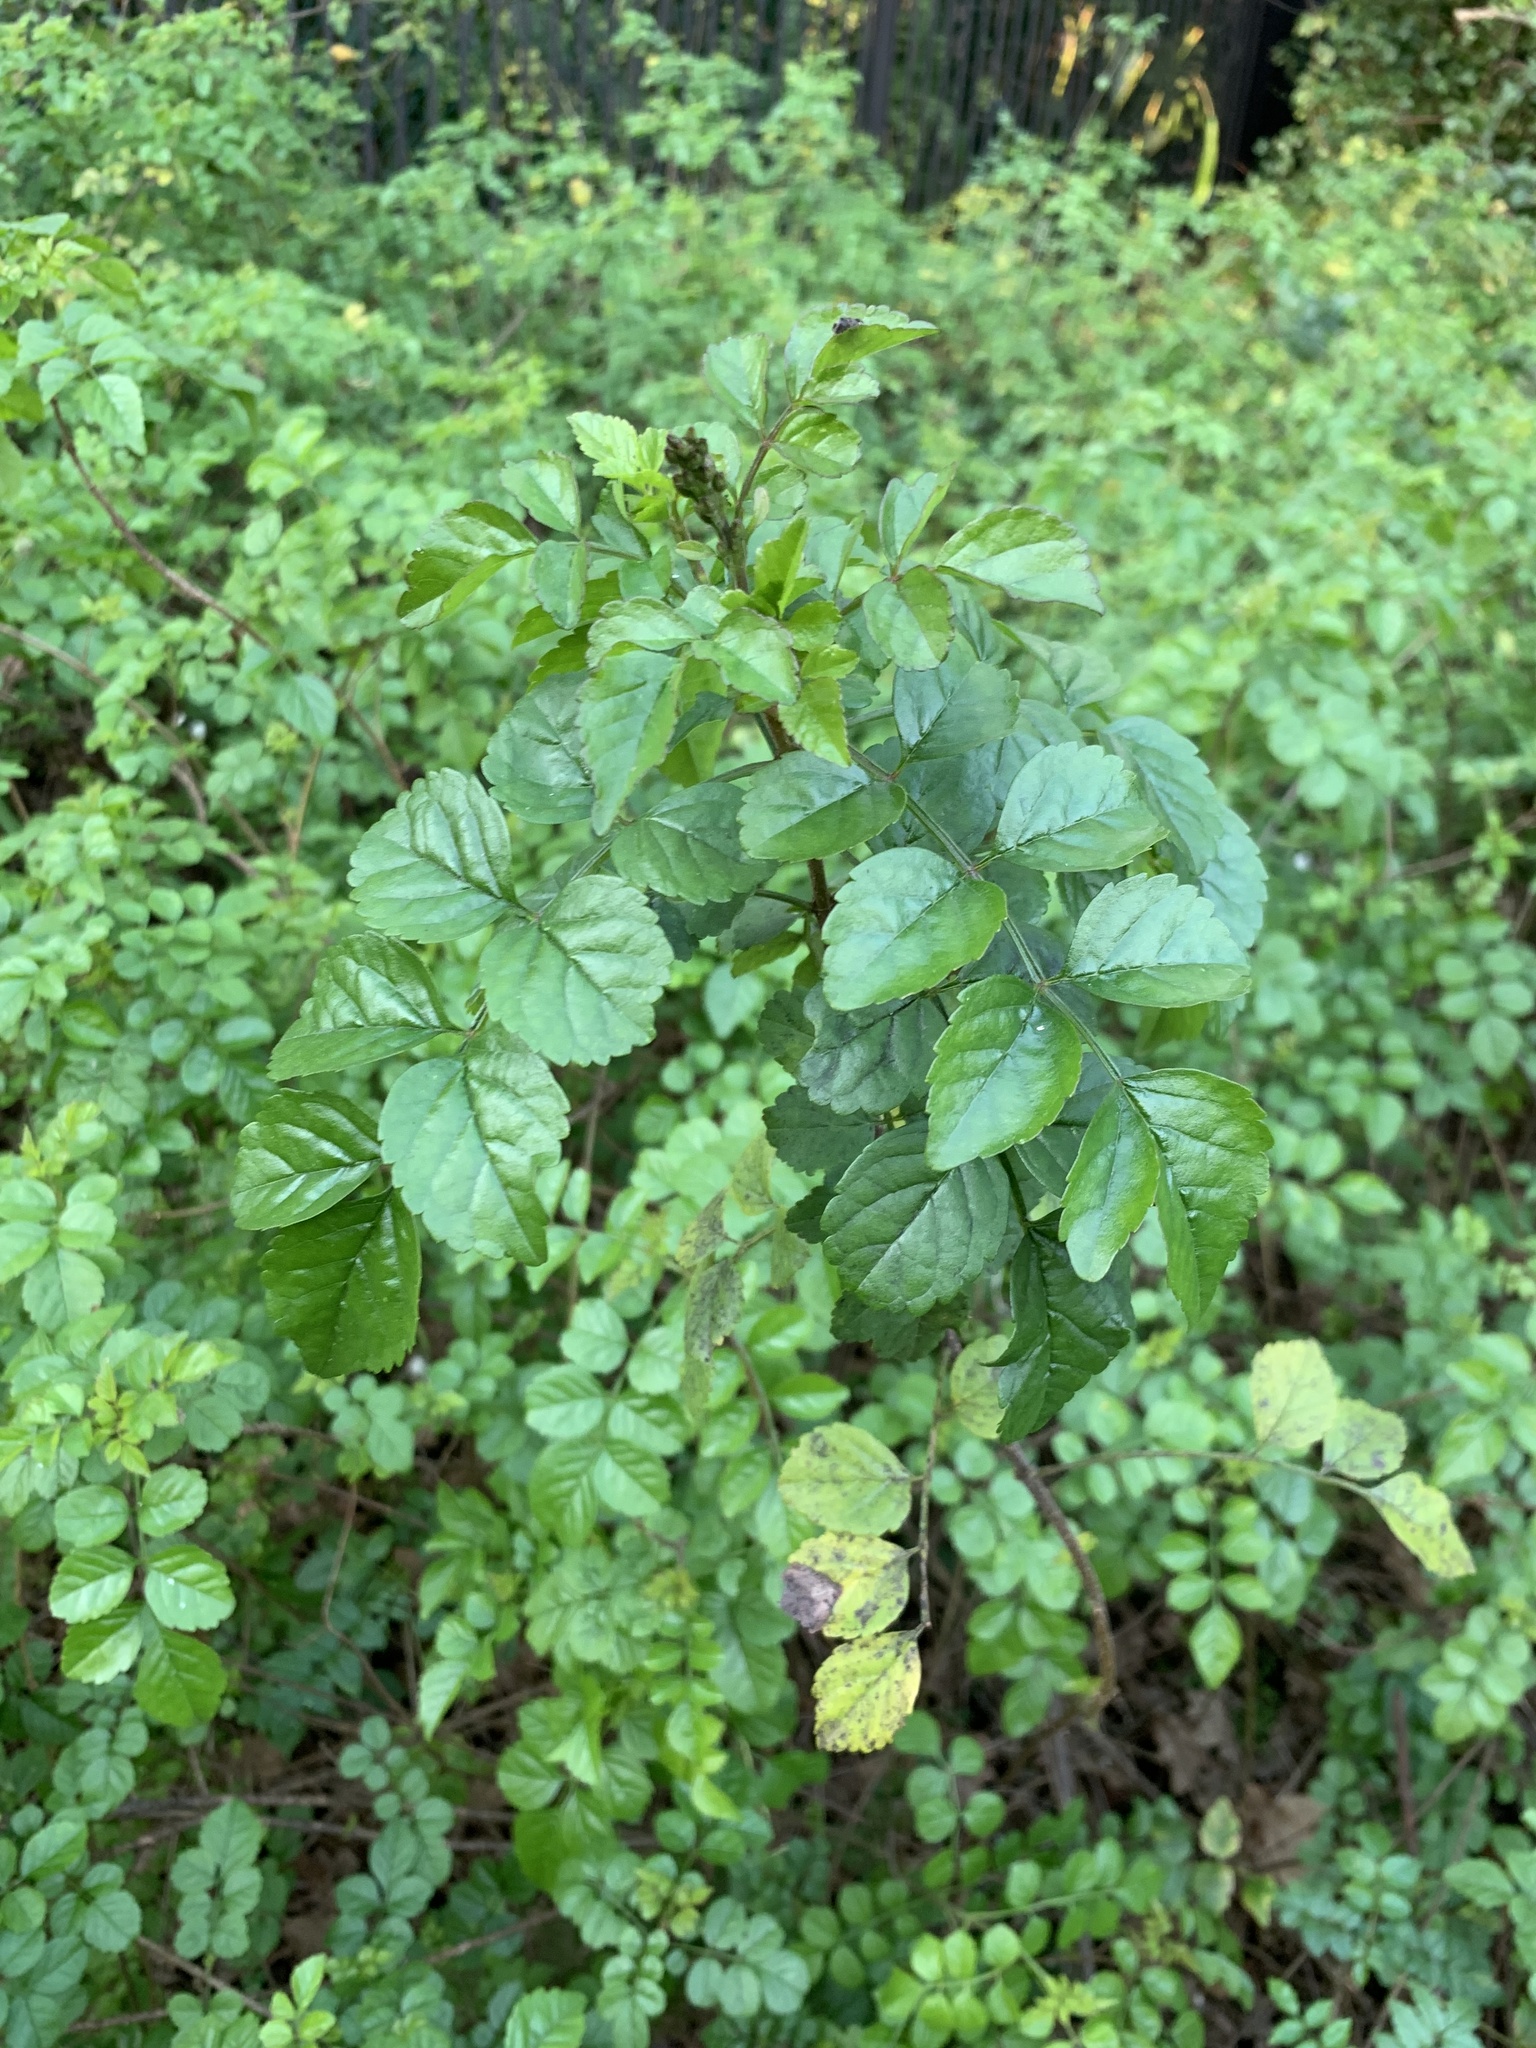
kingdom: Plantae
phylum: Tracheophyta
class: Magnoliopsida
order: Lamiales
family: Bignoniaceae
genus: Tecomaria
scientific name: Tecomaria capensis
